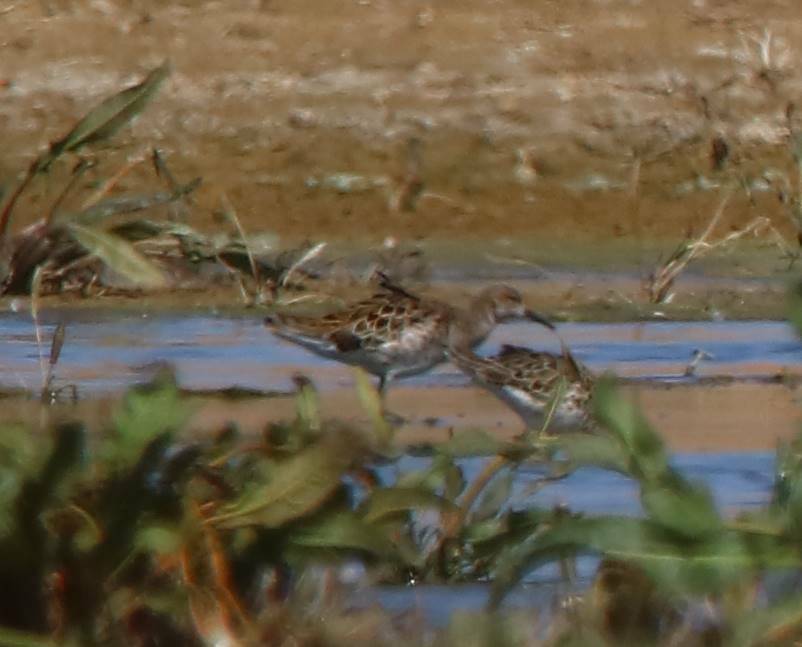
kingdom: Animalia
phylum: Chordata
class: Aves
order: Charadriiformes
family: Scolopacidae
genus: Calidris
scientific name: Calidris pugnax
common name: Ruff
